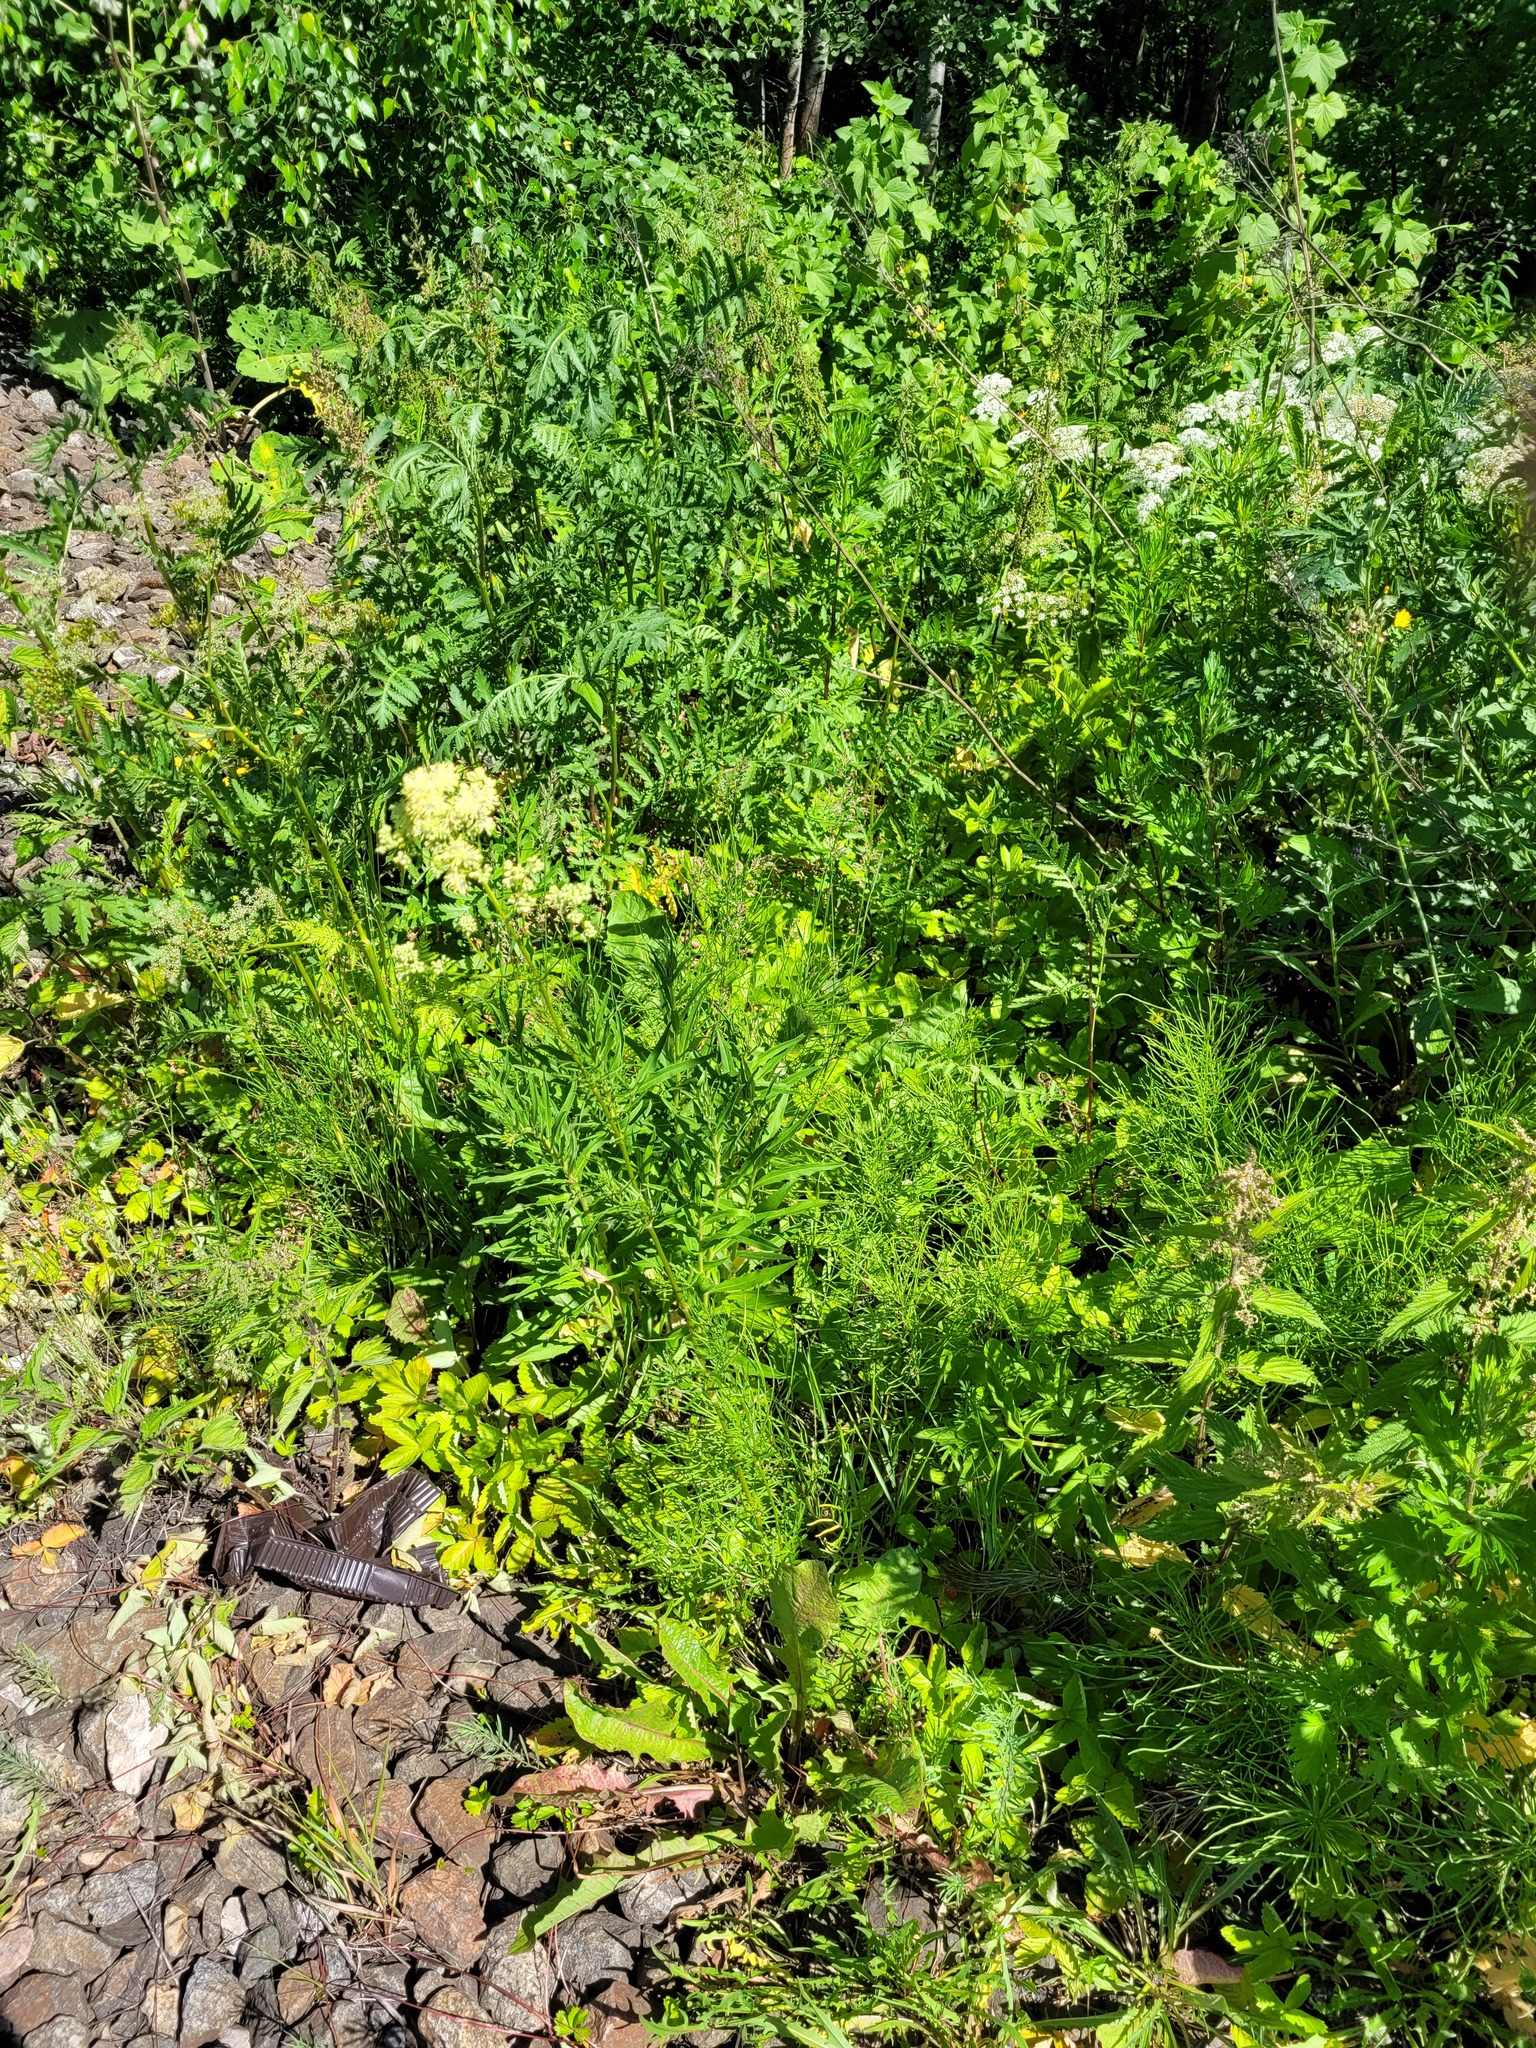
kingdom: Plantae
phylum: Tracheophyta
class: Magnoliopsida
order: Ranunculales
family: Ranunculaceae
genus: Thalictrum
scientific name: Thalictrum lucidum
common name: Shining meadow-rue
